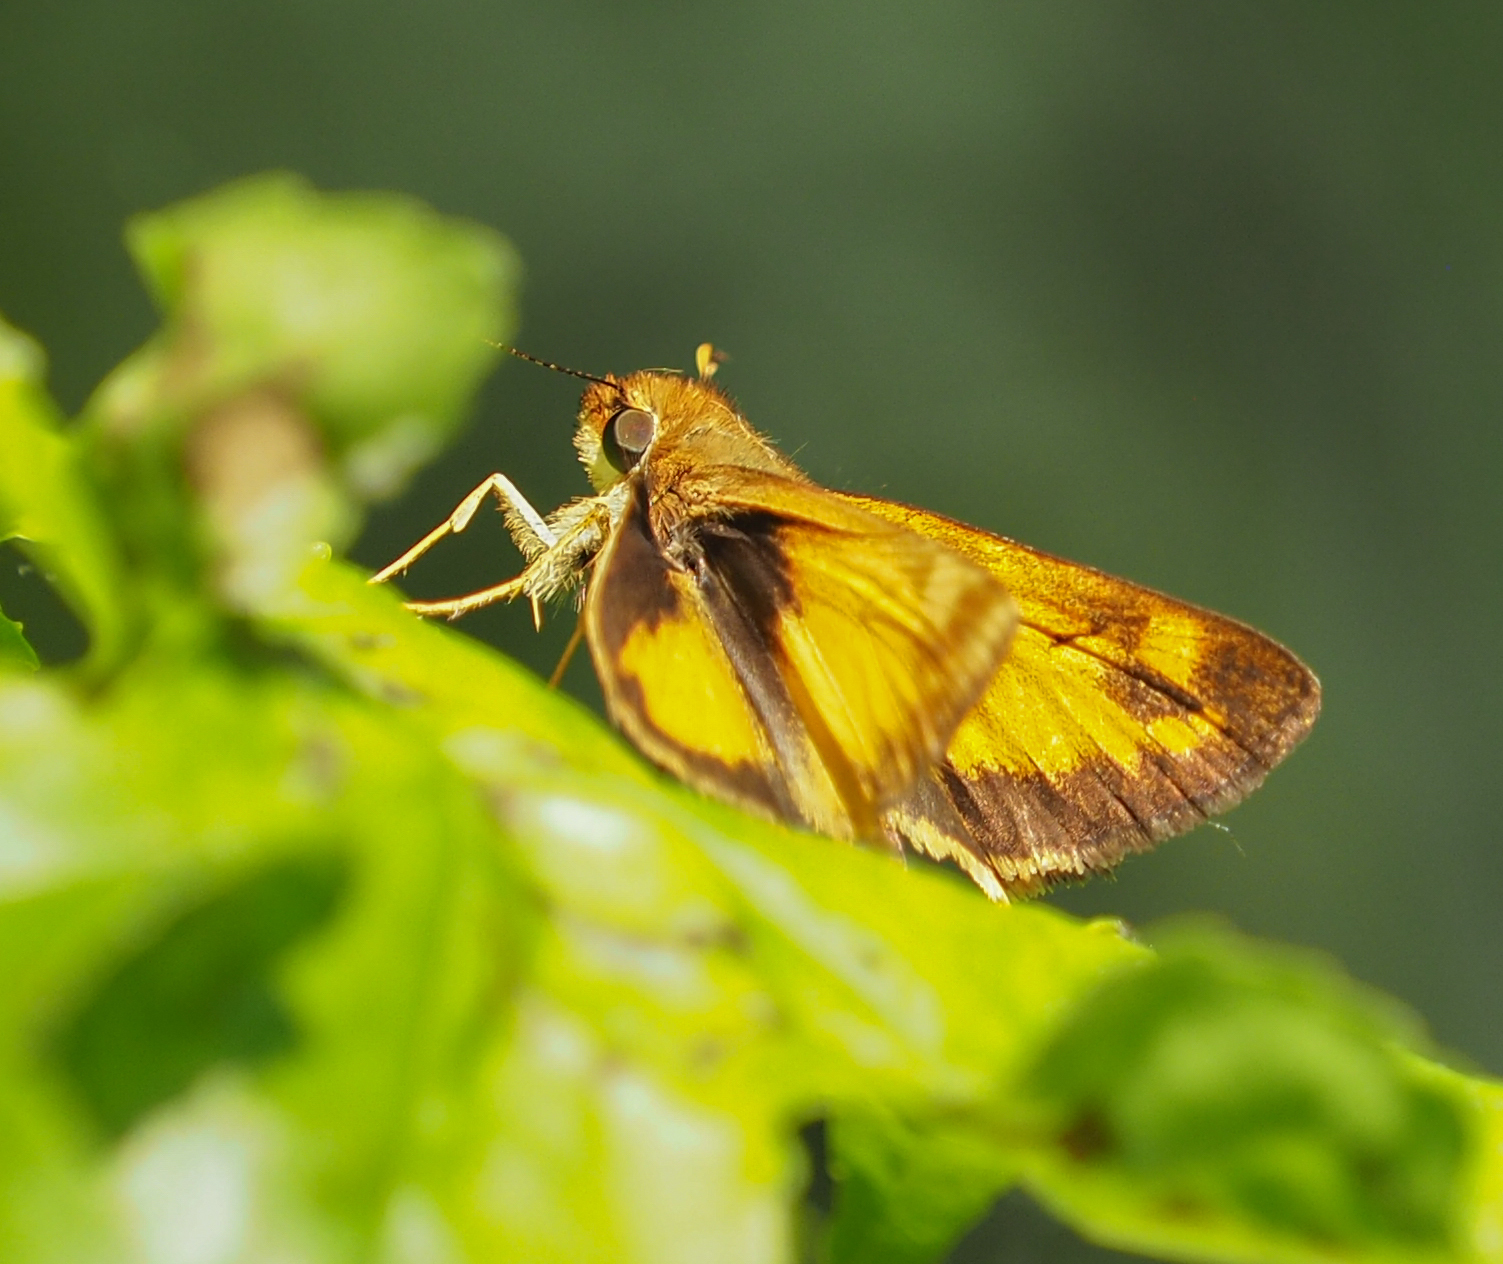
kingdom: Animalia
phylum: Arthropoda
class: Insecta
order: Lepidoptera
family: Hesperiidae
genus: Lon
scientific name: Lon zabulon
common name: Zabulon skipper
